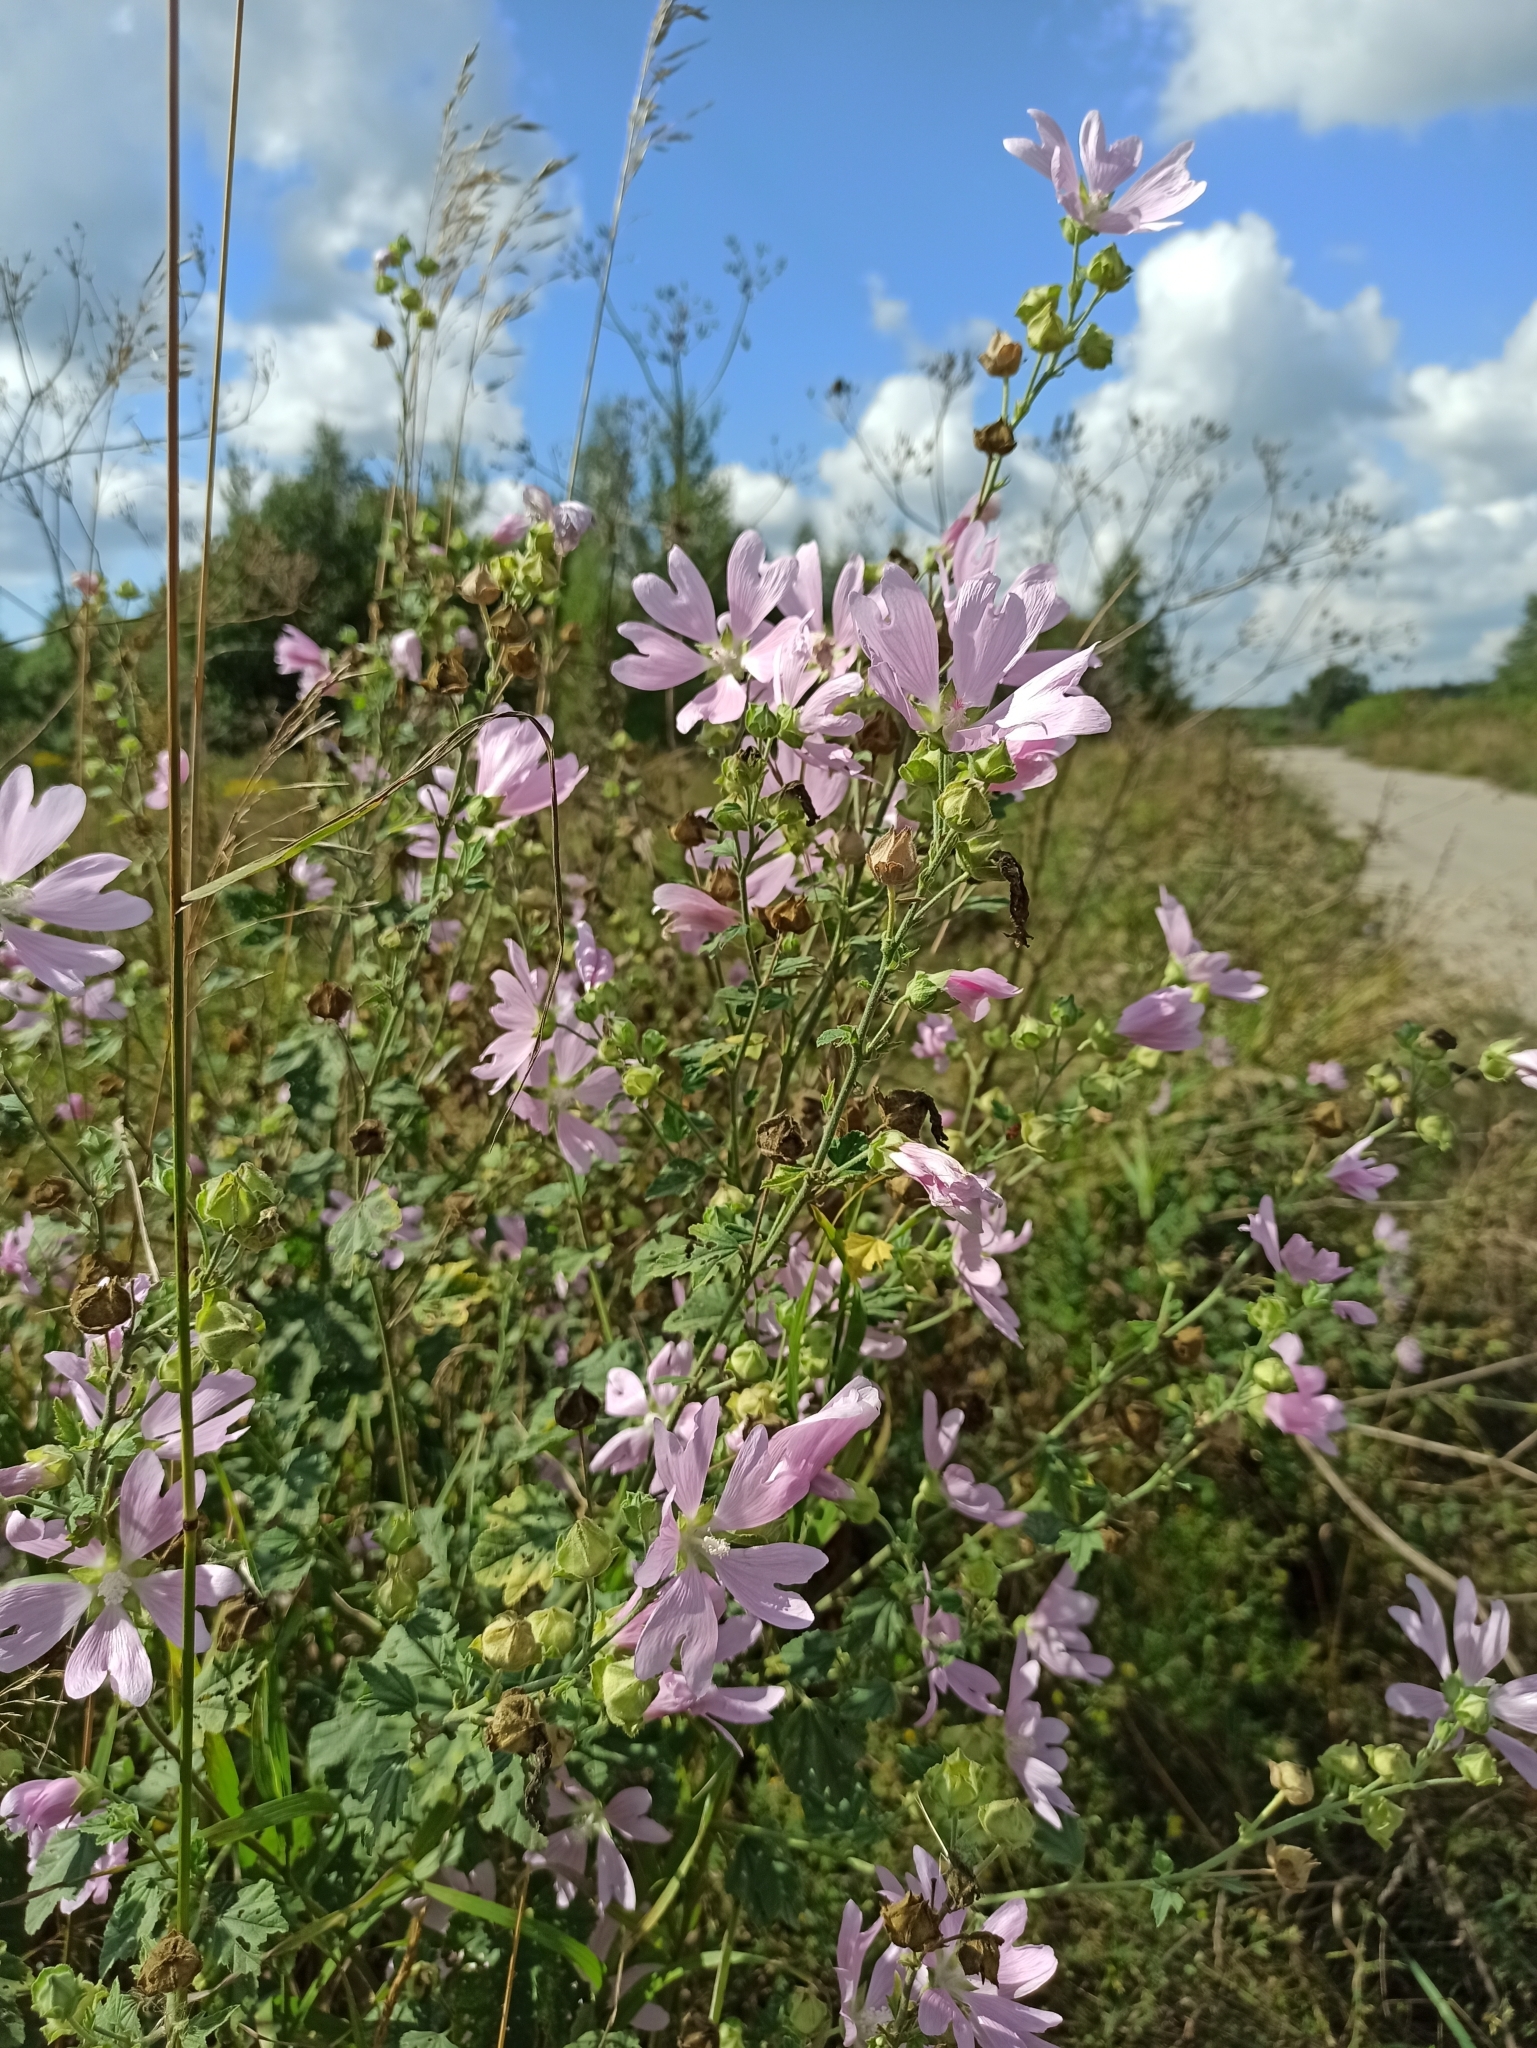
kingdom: Plantae
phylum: Tracheophyta
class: Magnoliopsida
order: Malvales
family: Malvaceae
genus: Malva
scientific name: Malva thuringiaca
